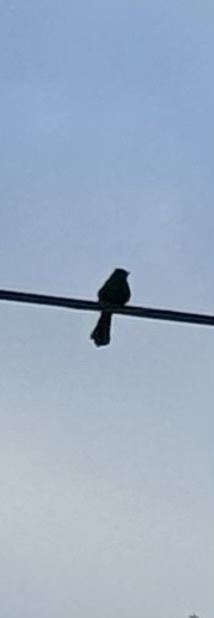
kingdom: Animalia
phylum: Chordata
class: Aves
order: Passeriformes
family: Ptilogonatidae
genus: Phainopepla
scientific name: Phainopepla nitens
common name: Phainopepla
